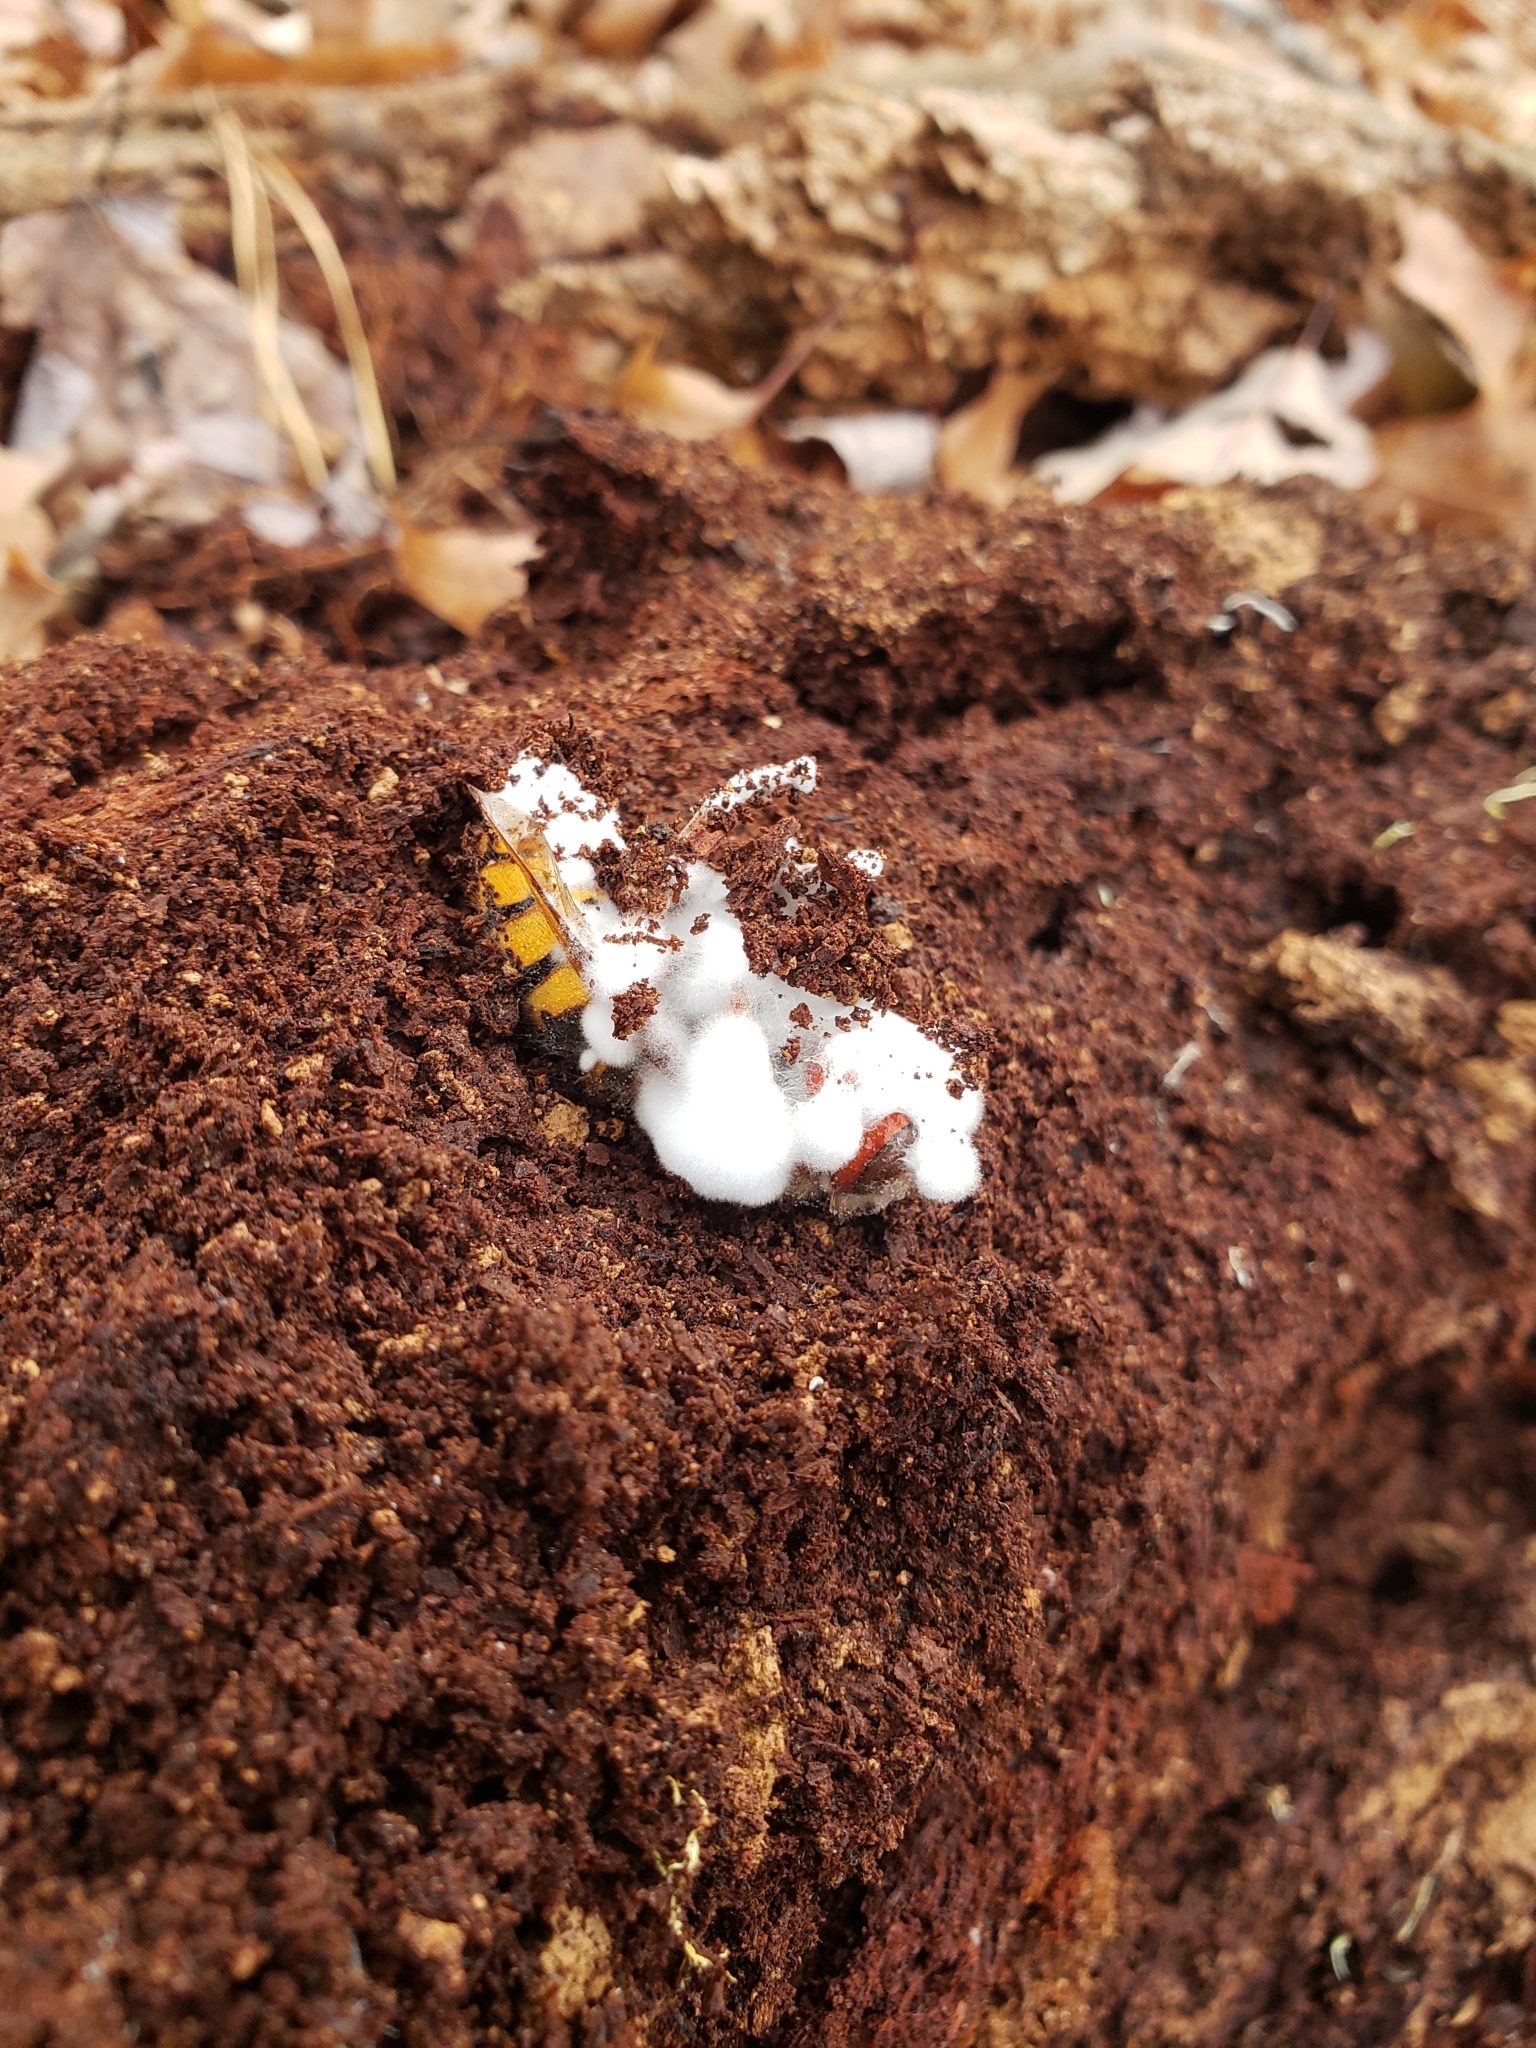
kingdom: Animalia
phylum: Arthropoda
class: Insecta
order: Hymenoptera
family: Vespidae
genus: Vespa
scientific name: Vespa crabro
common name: Hornet
